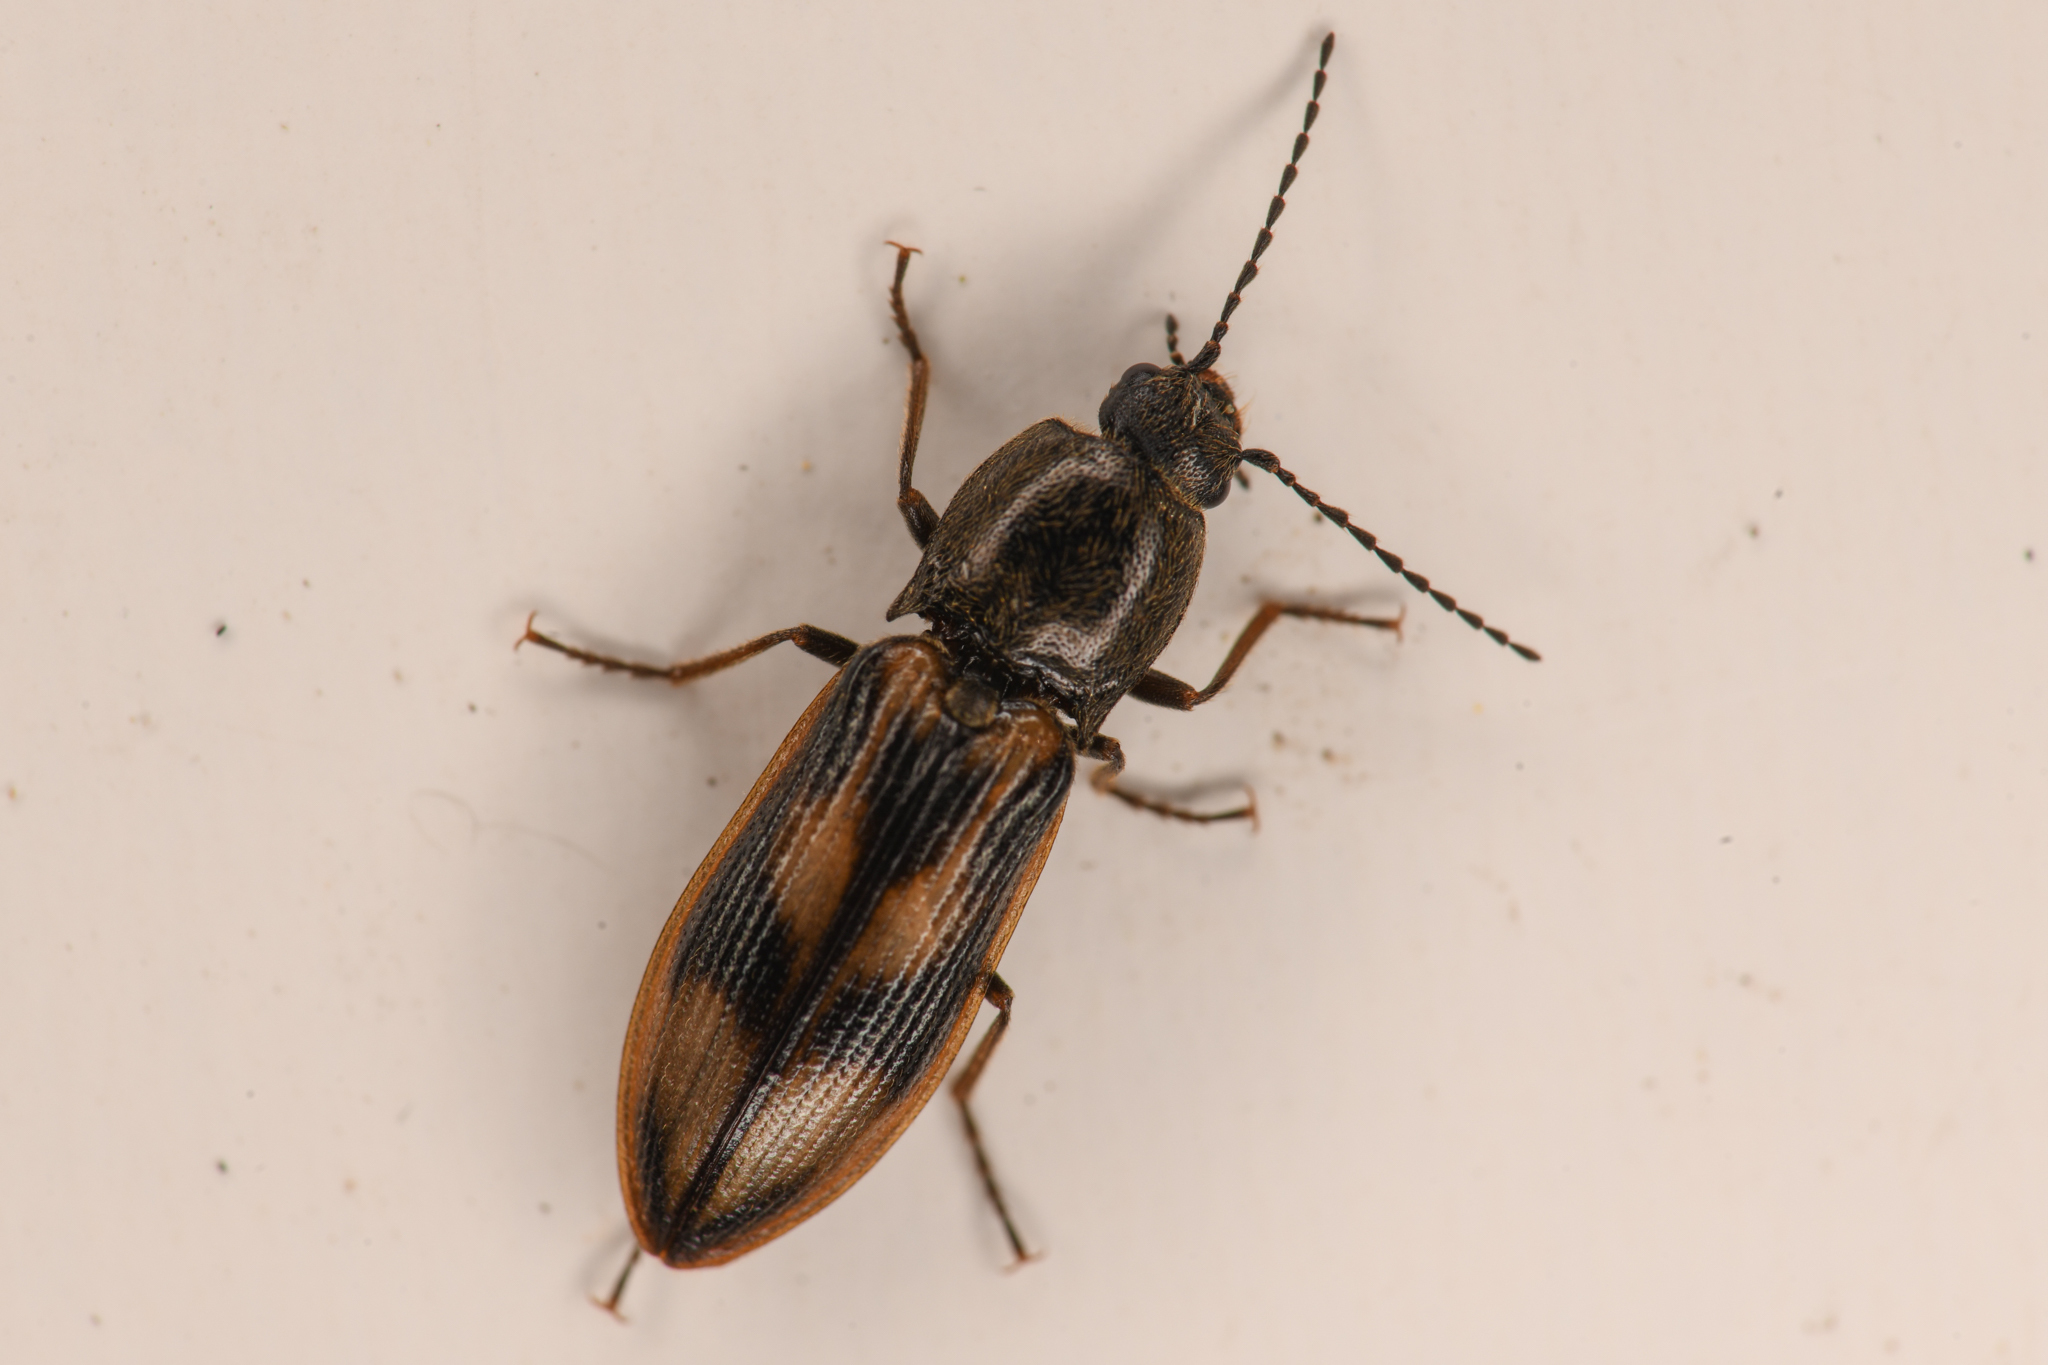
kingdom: Animalia
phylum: Arthropoda
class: Insecta
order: Coleoptera
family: Elateridae
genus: Liotrichus
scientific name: Liotrichus umbripennis
